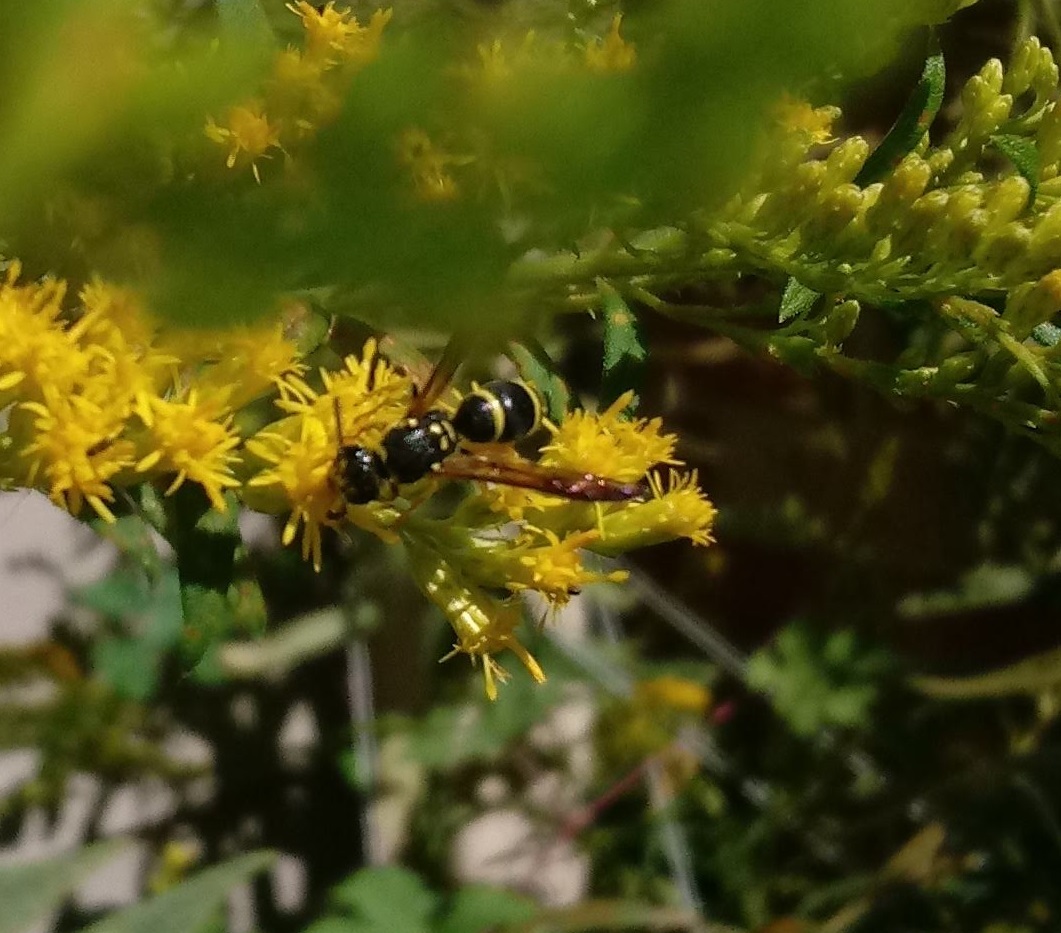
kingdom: Animalia
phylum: Arthropoda
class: Insecta
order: Hymenoptera
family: Vespidae
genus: Ancistrocerus
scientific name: Ancistrocerus adiabatus
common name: Bramble mason wasp
